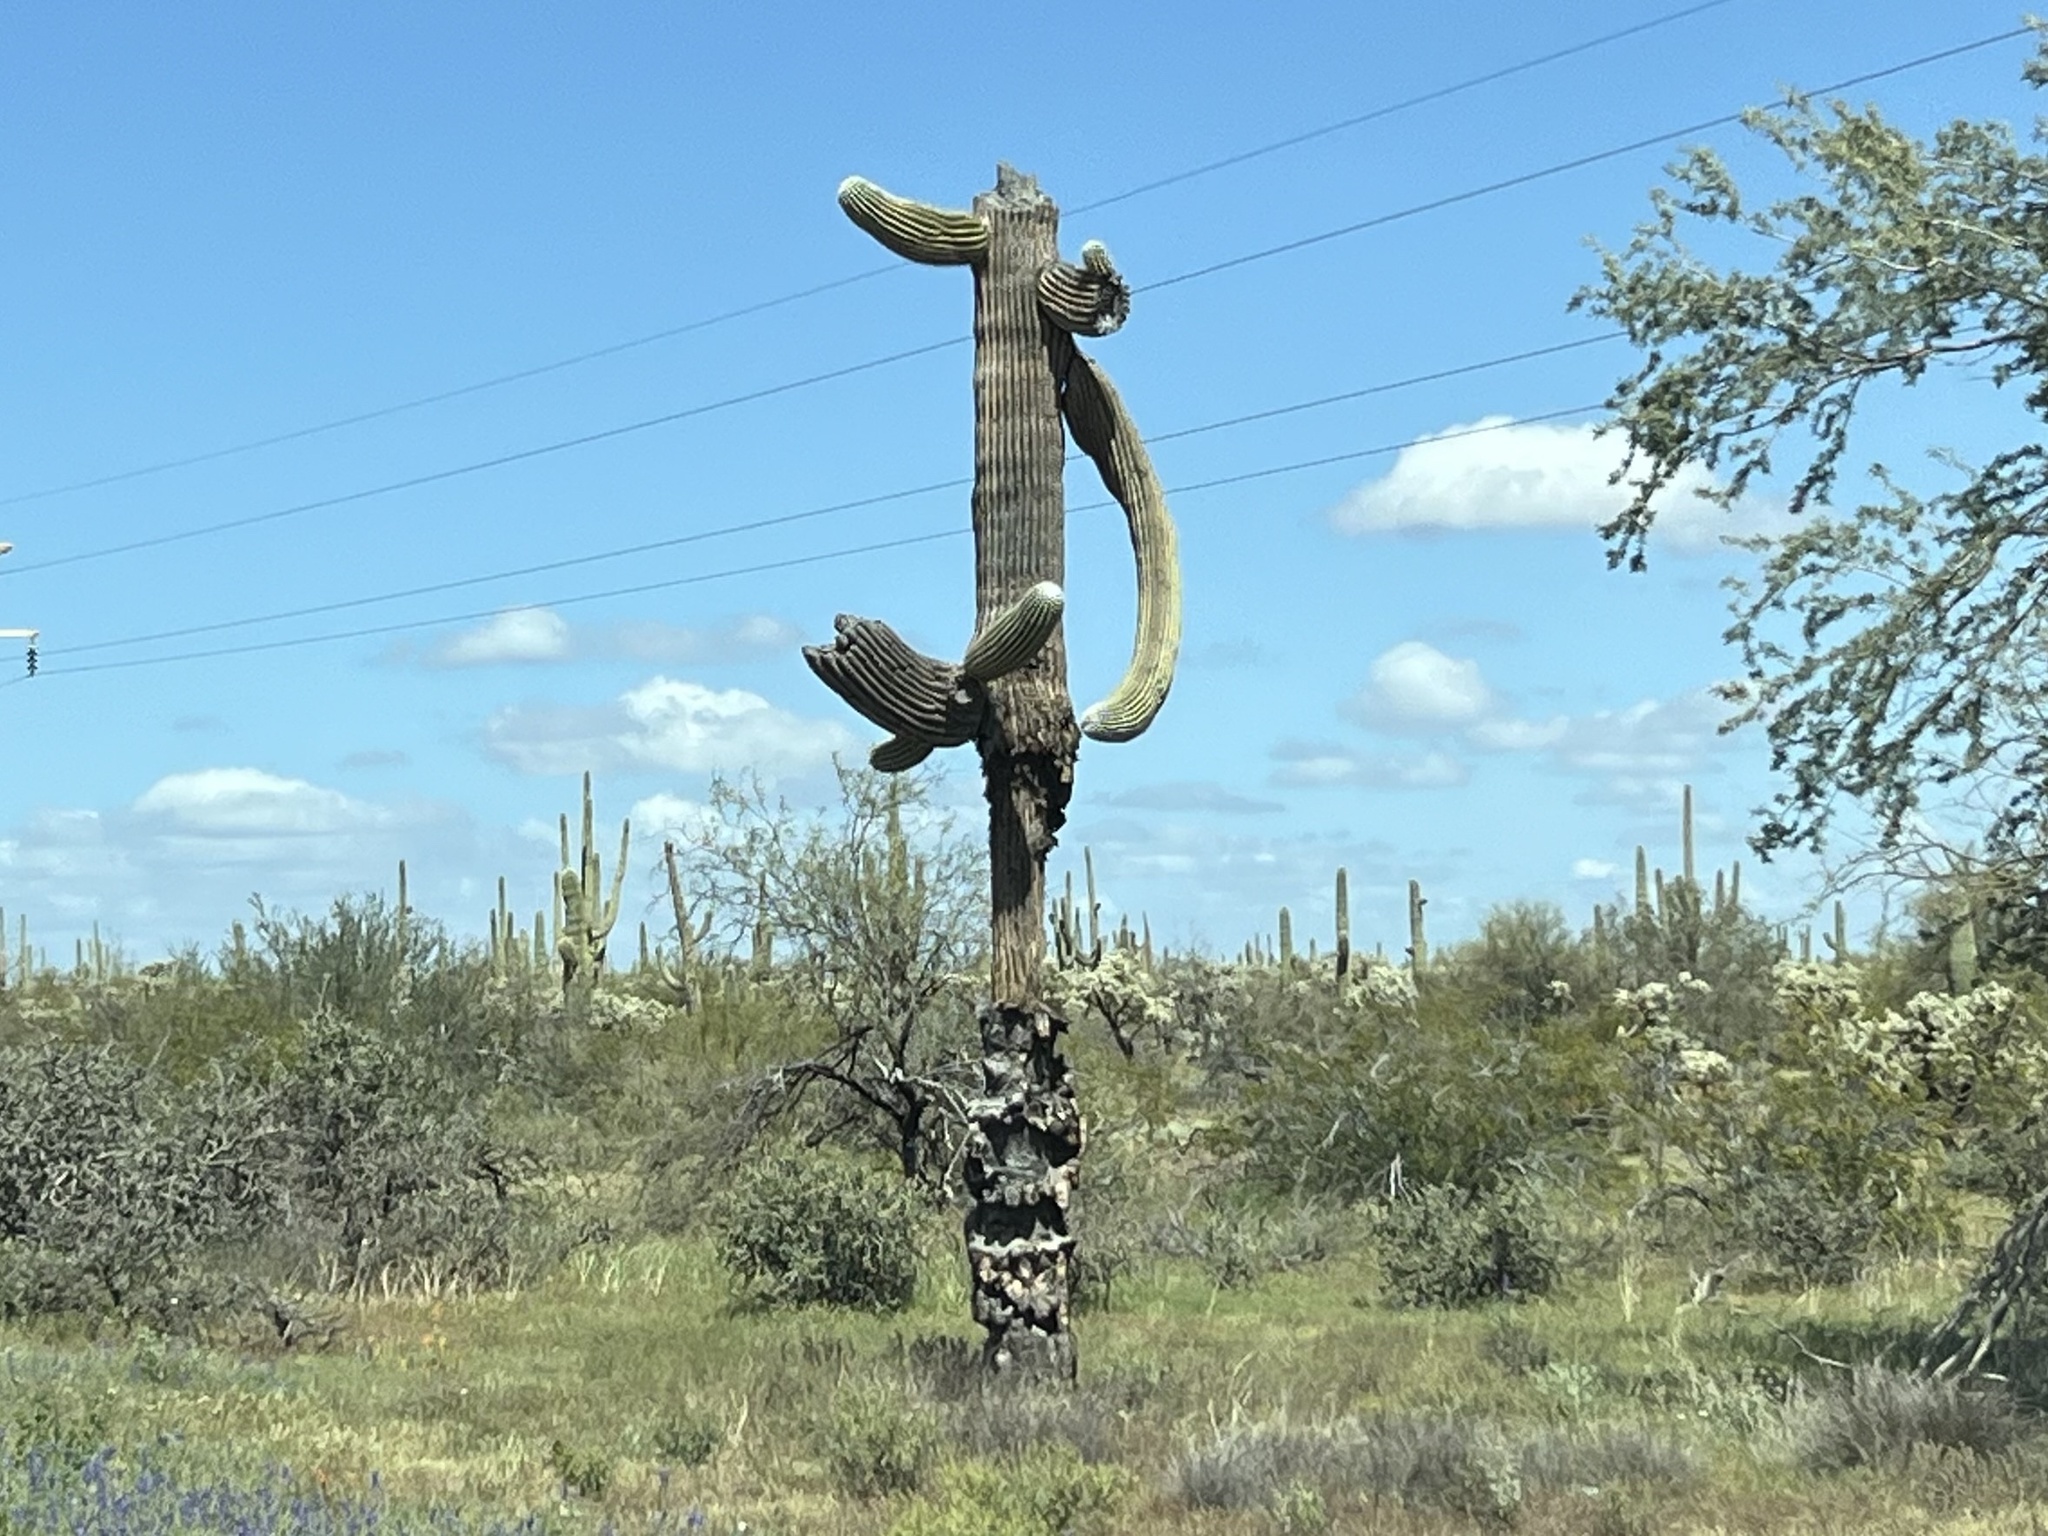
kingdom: Plantae
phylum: Tracheophyta
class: Magnoliopsida
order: Caryophyllales
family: Cactaceae
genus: Carnegiea
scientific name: Carnegiea gigantea
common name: Saguaro
